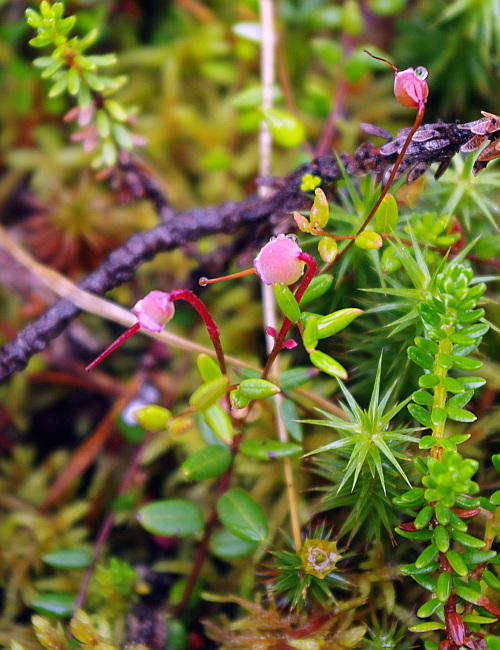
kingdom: Plantae
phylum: Tracheophyta
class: Magnoliopsida
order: Ericales
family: Ericaceae
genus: Vaccinium
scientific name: Vaccinium microcarpum
